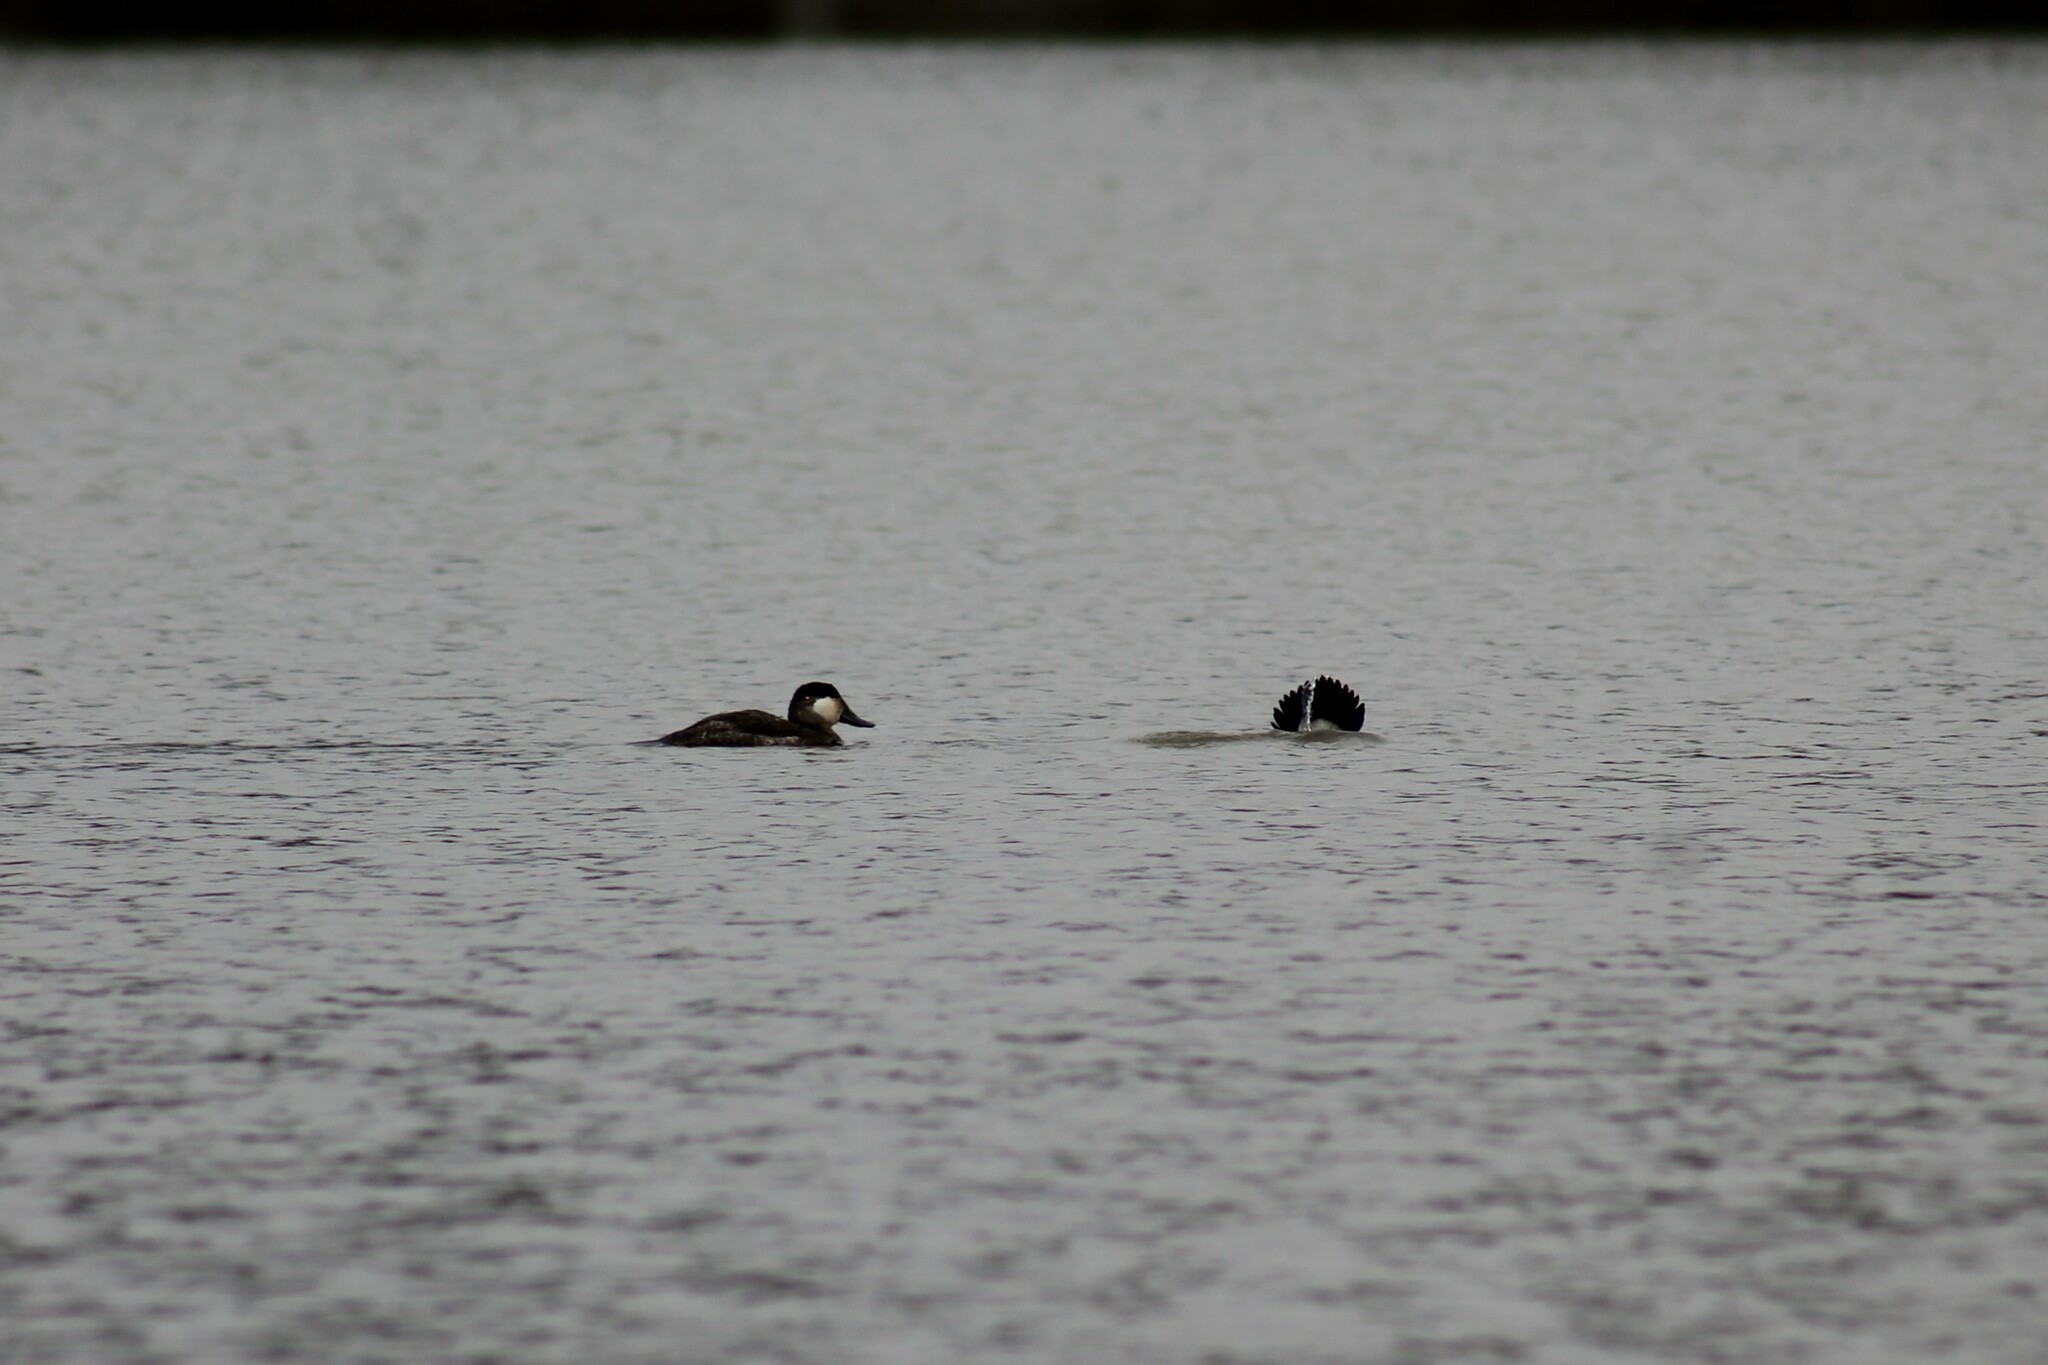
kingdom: Animalia
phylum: Chordata
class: Aves
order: Anseriformes
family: Anatidae
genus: Oxyura
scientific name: Oxyura jamaicensis
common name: Ruddy duck
